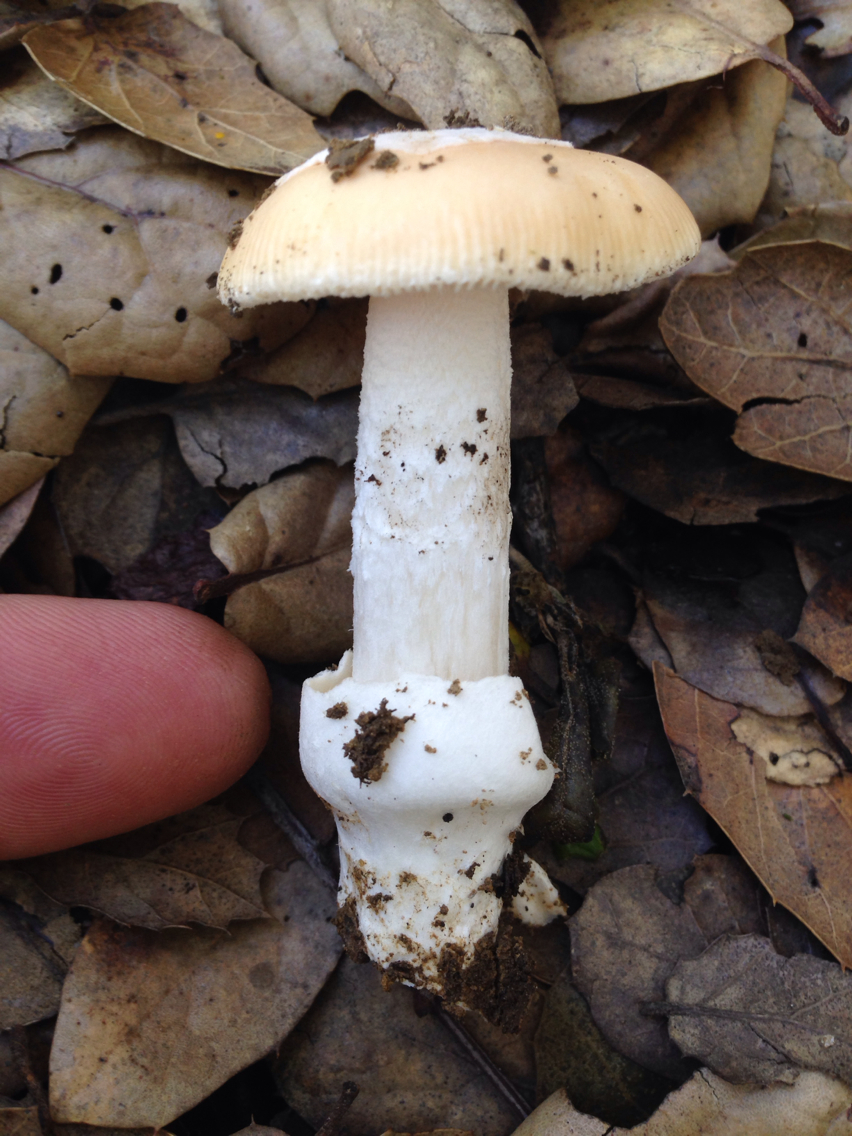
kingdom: Fungi
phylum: Basidiomycota
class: Agaricomycetes
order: Agaricales
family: Amanitaceae
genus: Amanita
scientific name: Amanita velosa
